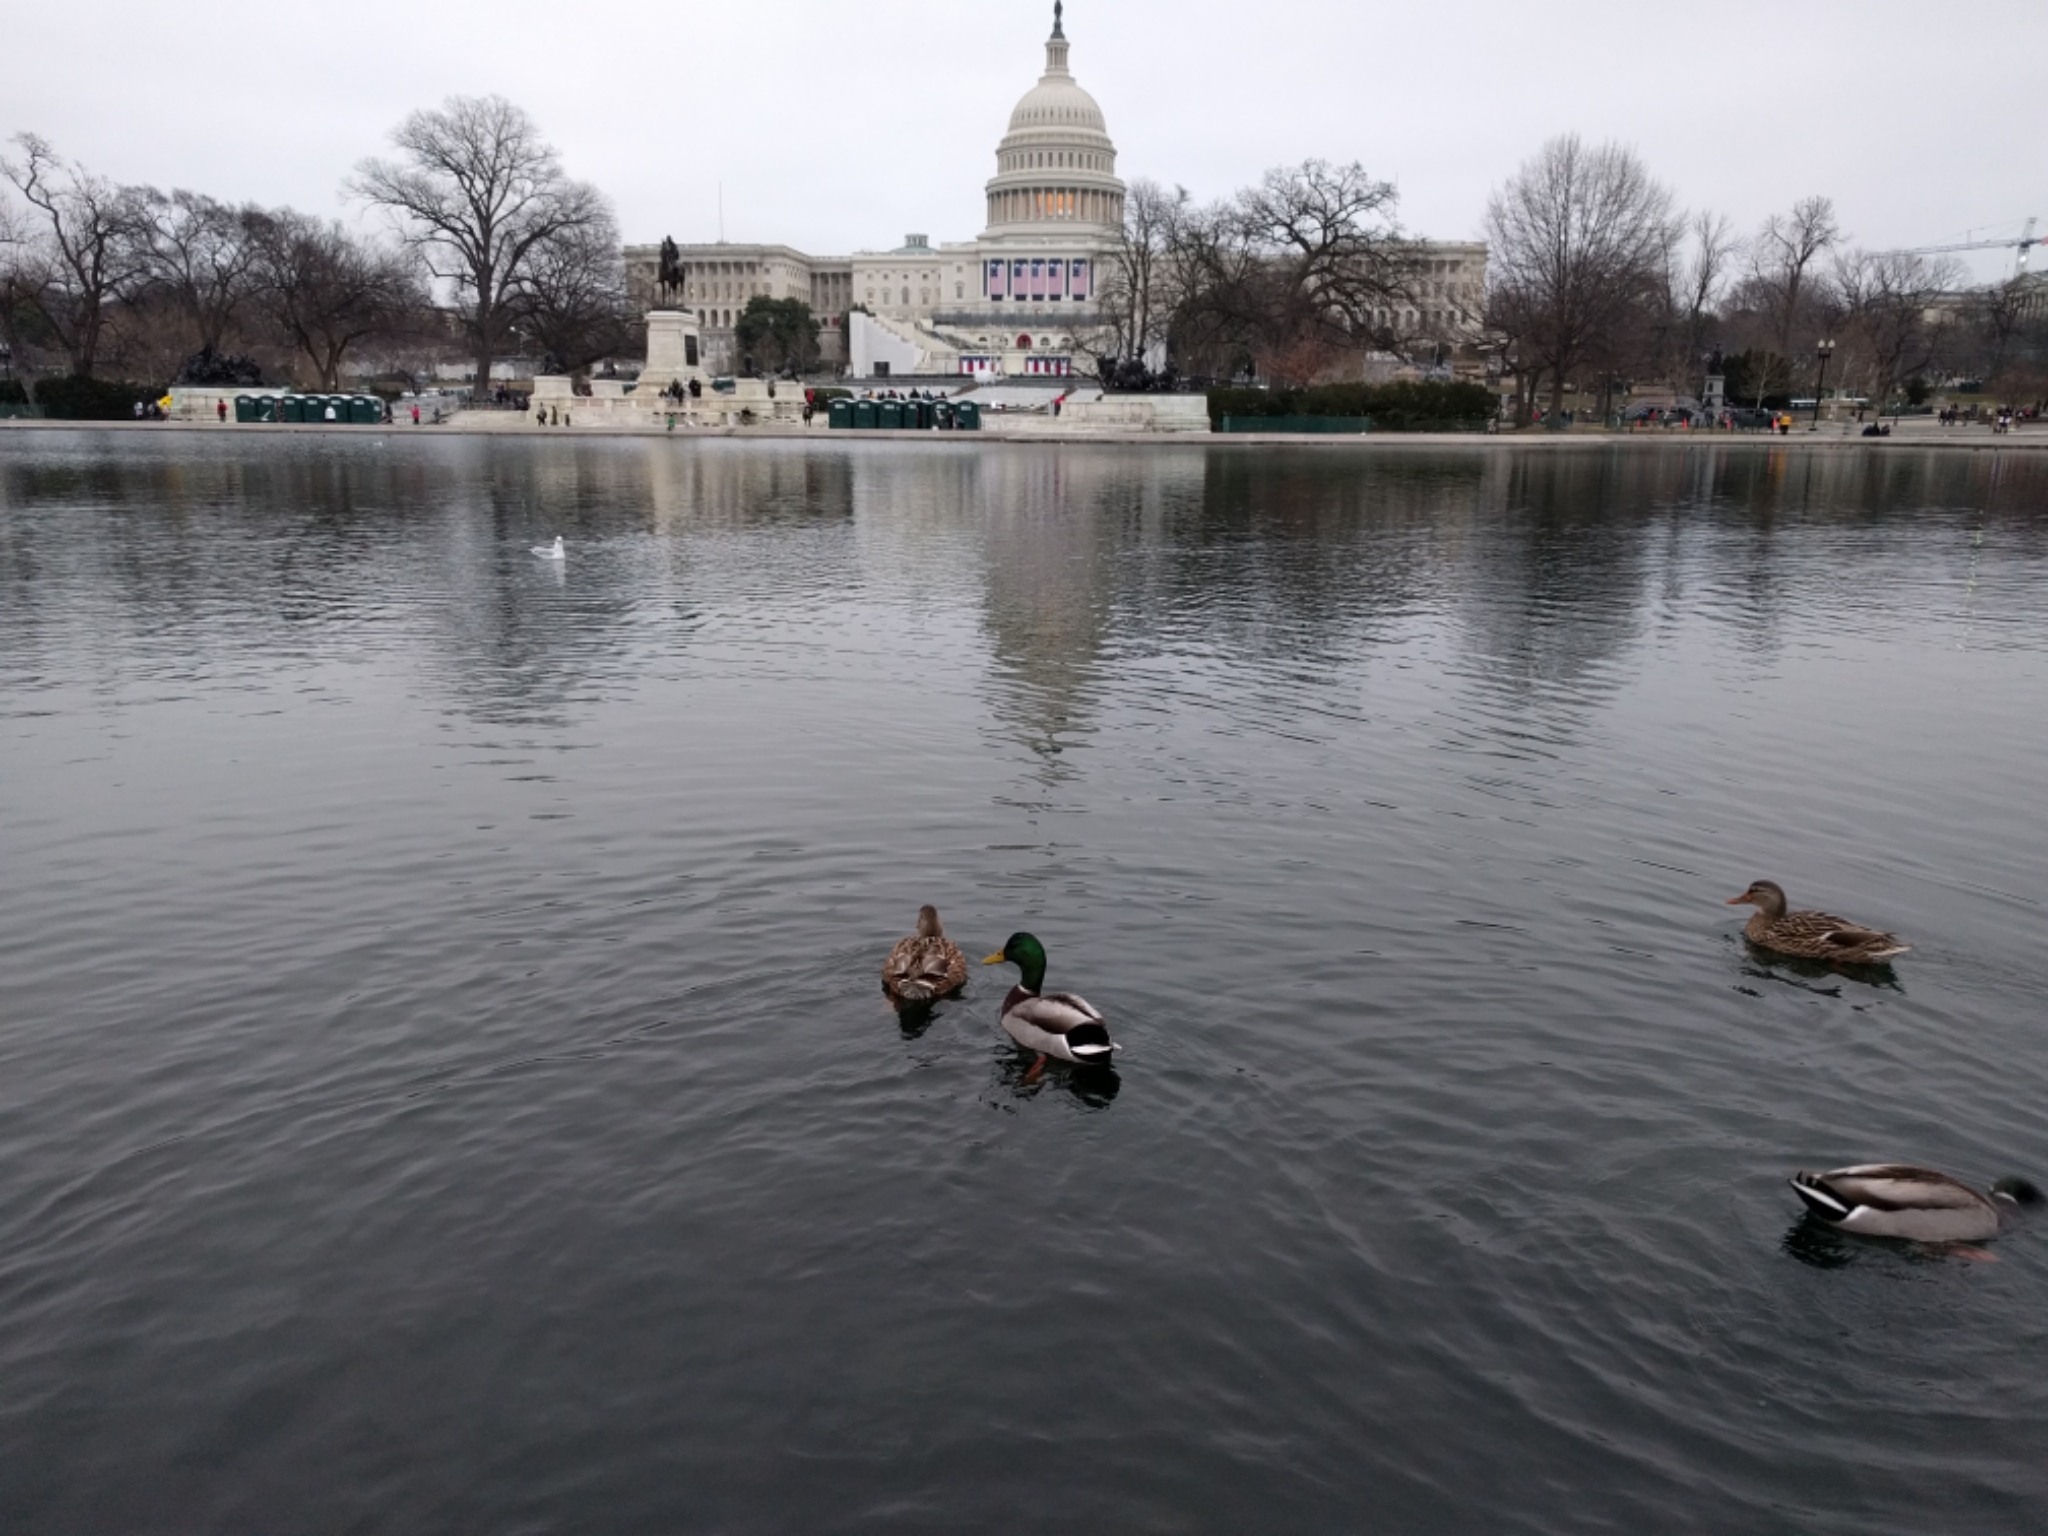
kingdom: Animalia
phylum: Chordata
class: Aves
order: Anseriformes
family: Anatidae
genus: Anas
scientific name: Anas platyrhynchos
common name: Mallard
